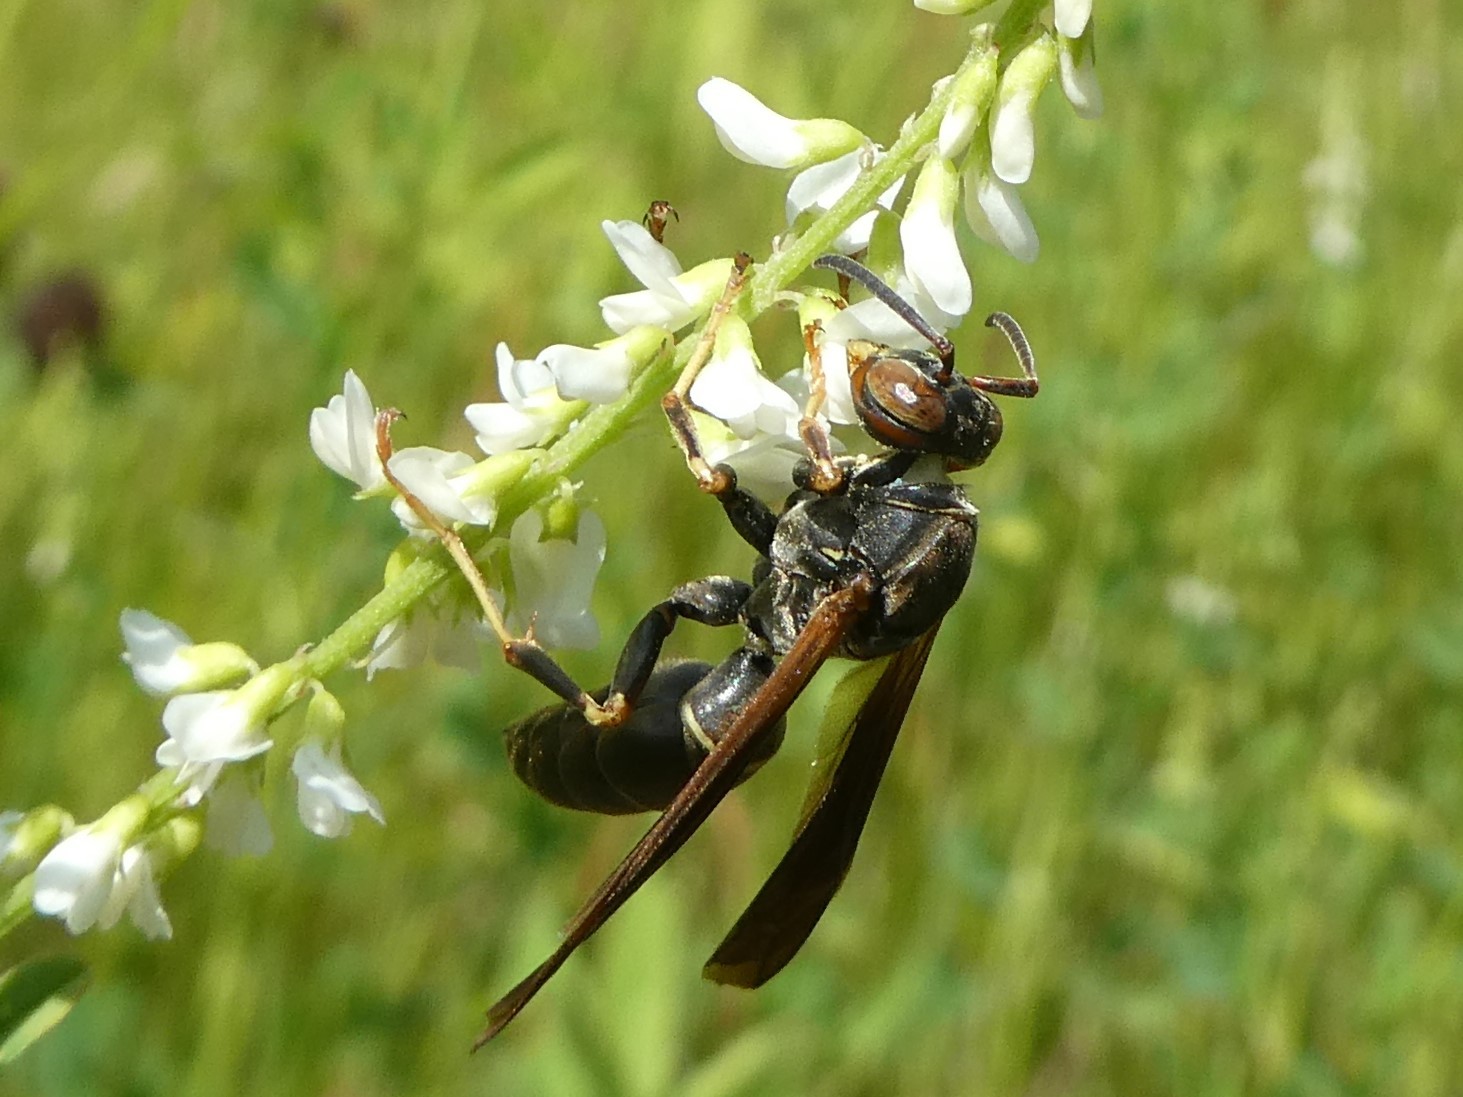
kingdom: Animalia
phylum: Arthropoda
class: Insecta
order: Hymenoptera
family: Eumenidae
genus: Polistes
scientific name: Polistes fuscatus
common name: Dark paper wasp
